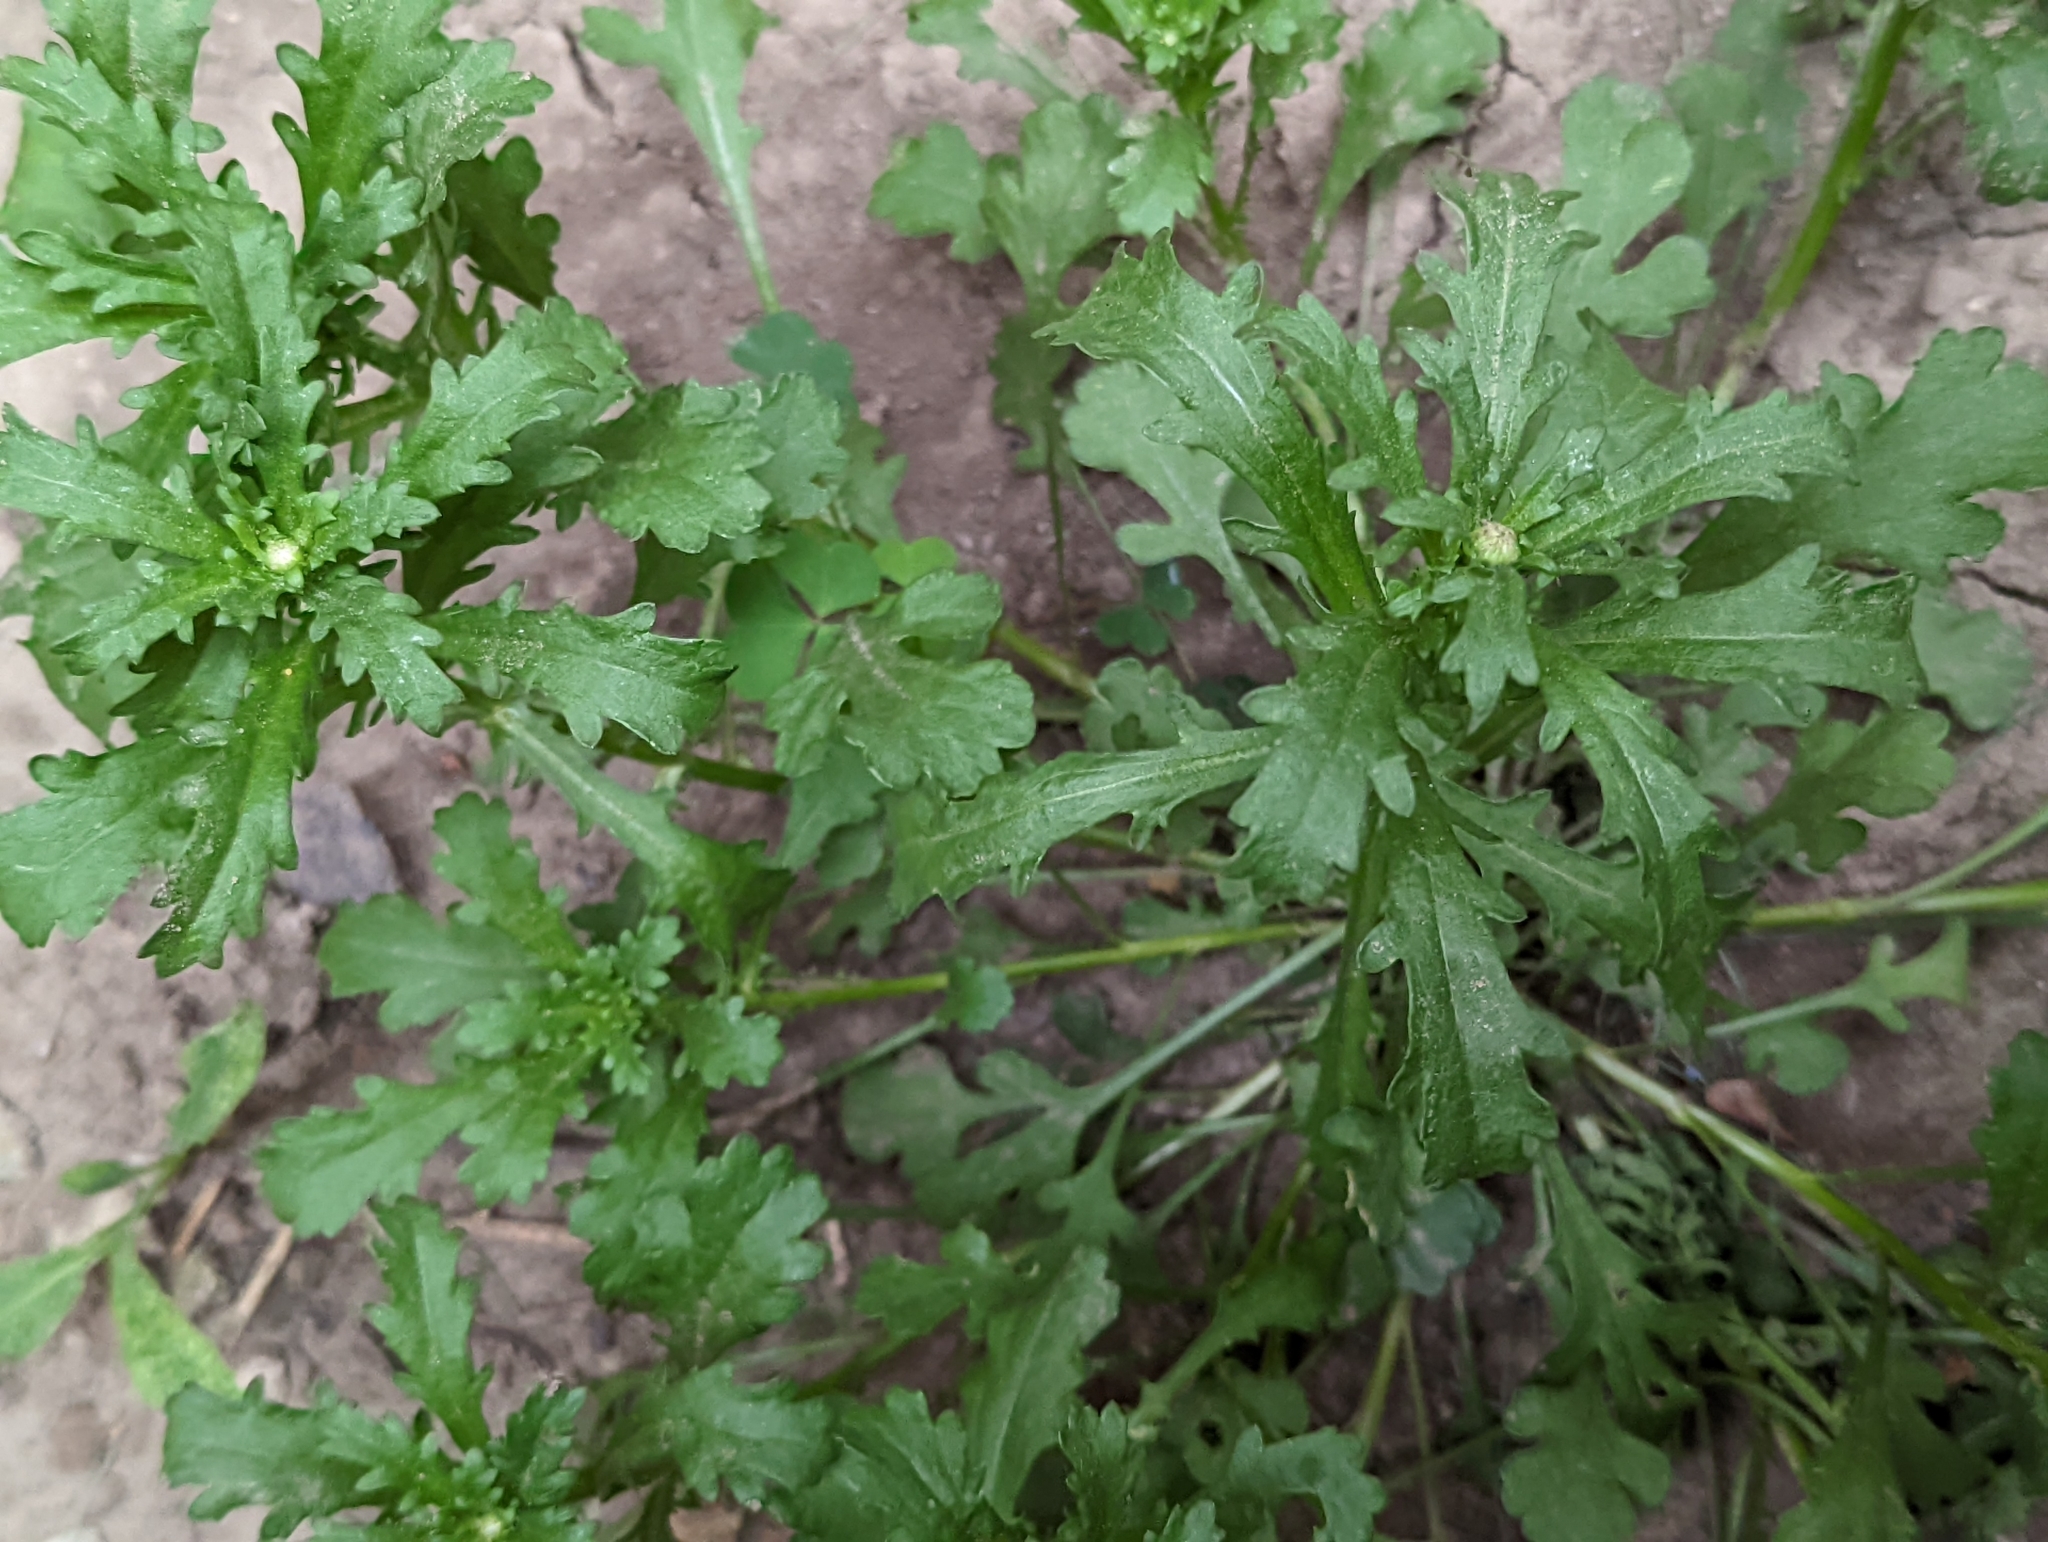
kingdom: Plantae
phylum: Tracheophyta
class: Magnoliopsida
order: Asterales
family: Asteraceae
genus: Leucanthemum
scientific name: Leucanthemum vulgare
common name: Oxeye daisy
